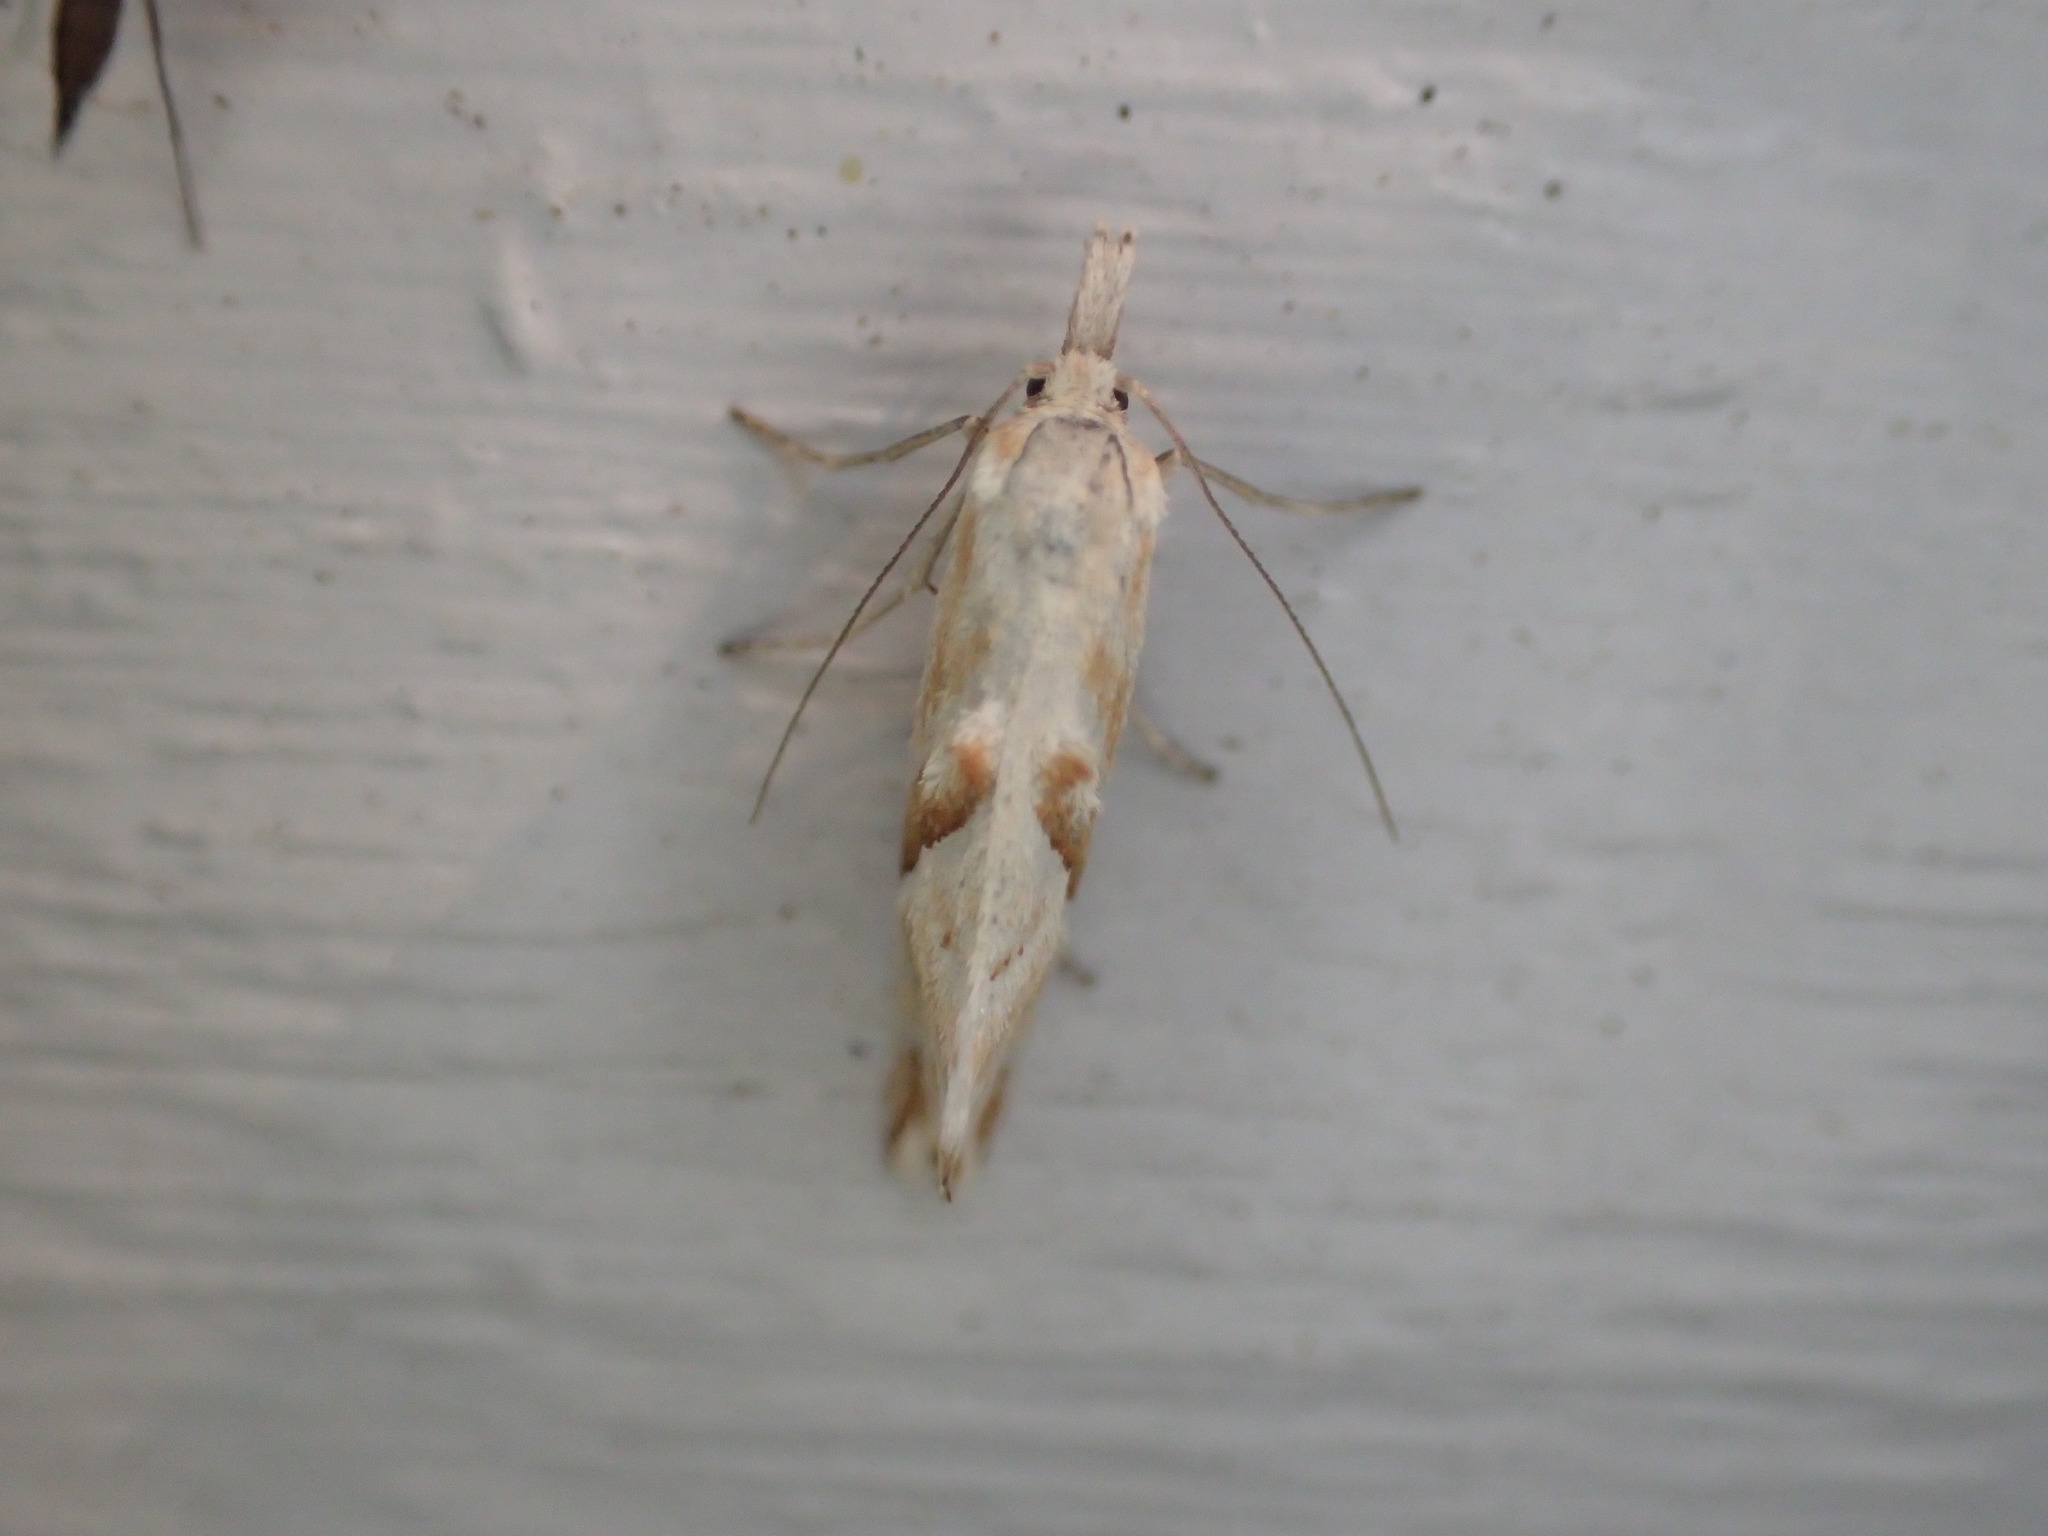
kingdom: Animalia
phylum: Arthropoda
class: Insecta
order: Lepidoptera
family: Tortricidae
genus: Heliocosma
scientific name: Heliocosma
